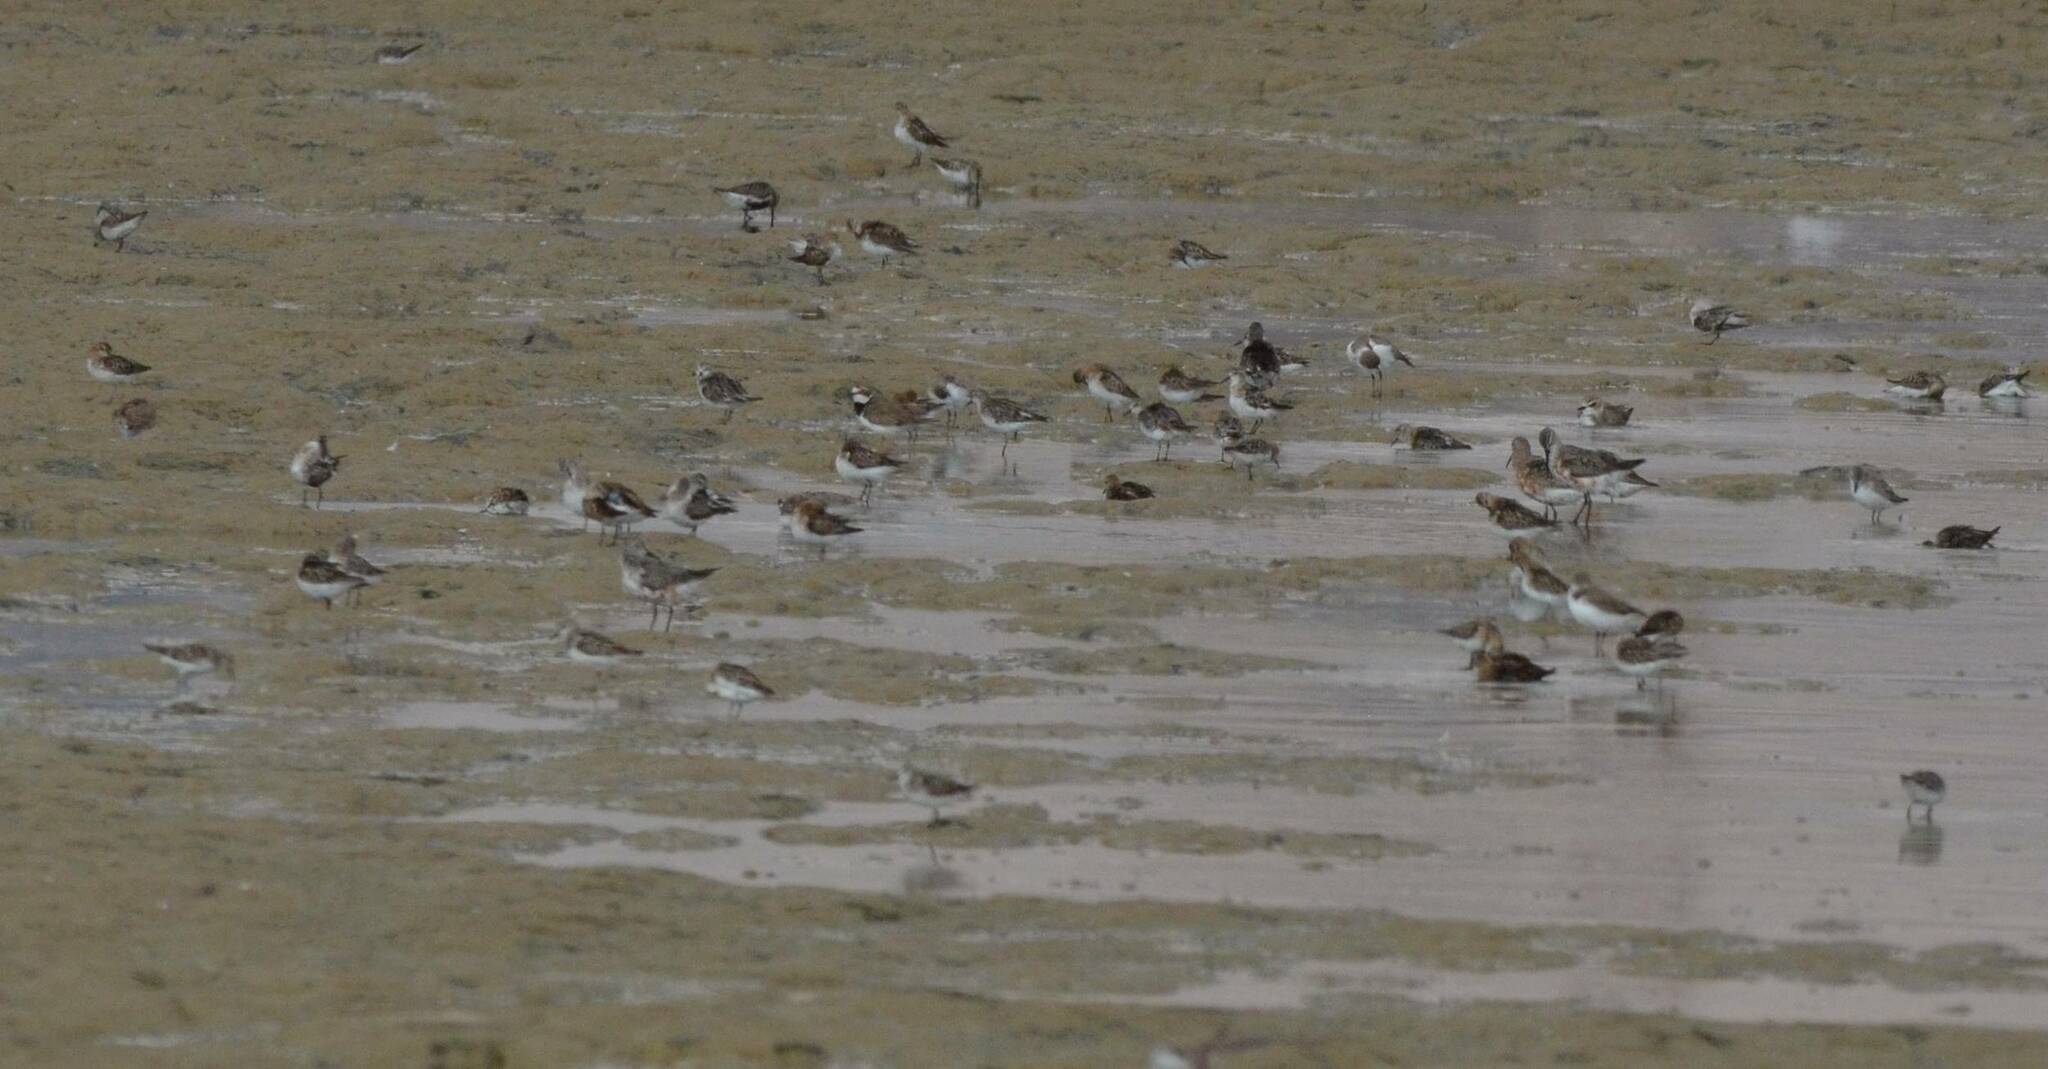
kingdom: Animalia
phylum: Chordata
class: Aves
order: Charadriiformes
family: Charadriidae
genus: Charadrius
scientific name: Charadrius dubius
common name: Little ringed plover
